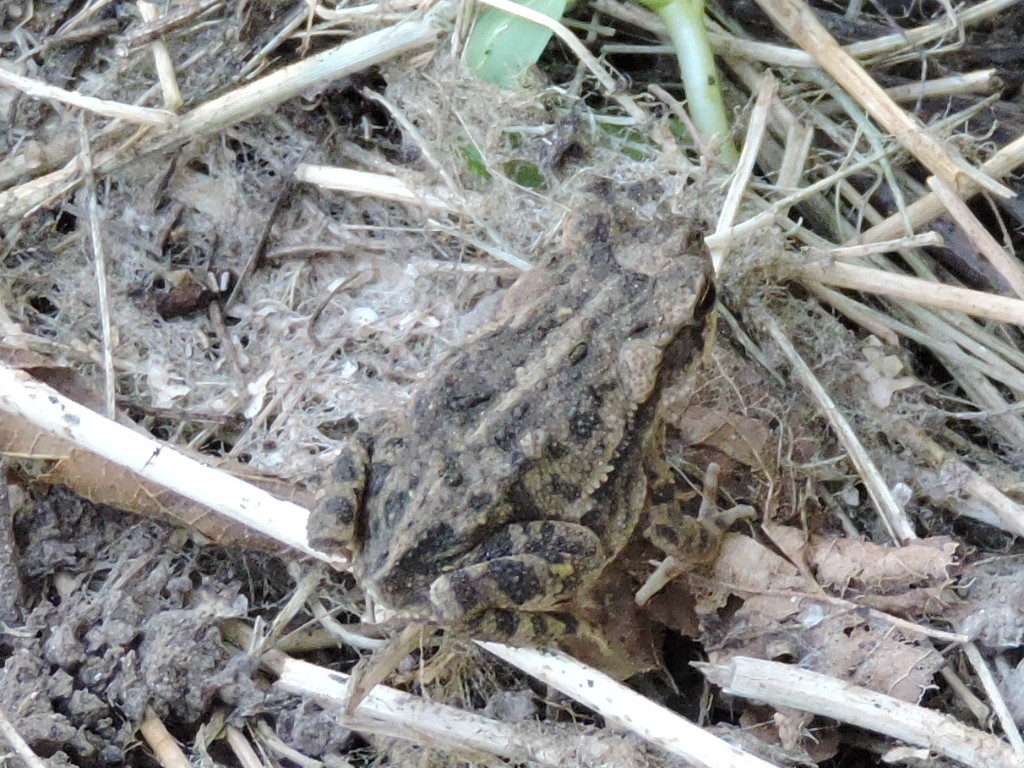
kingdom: Animalia
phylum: Chordata
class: Amphibia
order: Anura
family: Bufonidae
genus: Incilius
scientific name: Incilius nebulifer
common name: Gulf coast toad
